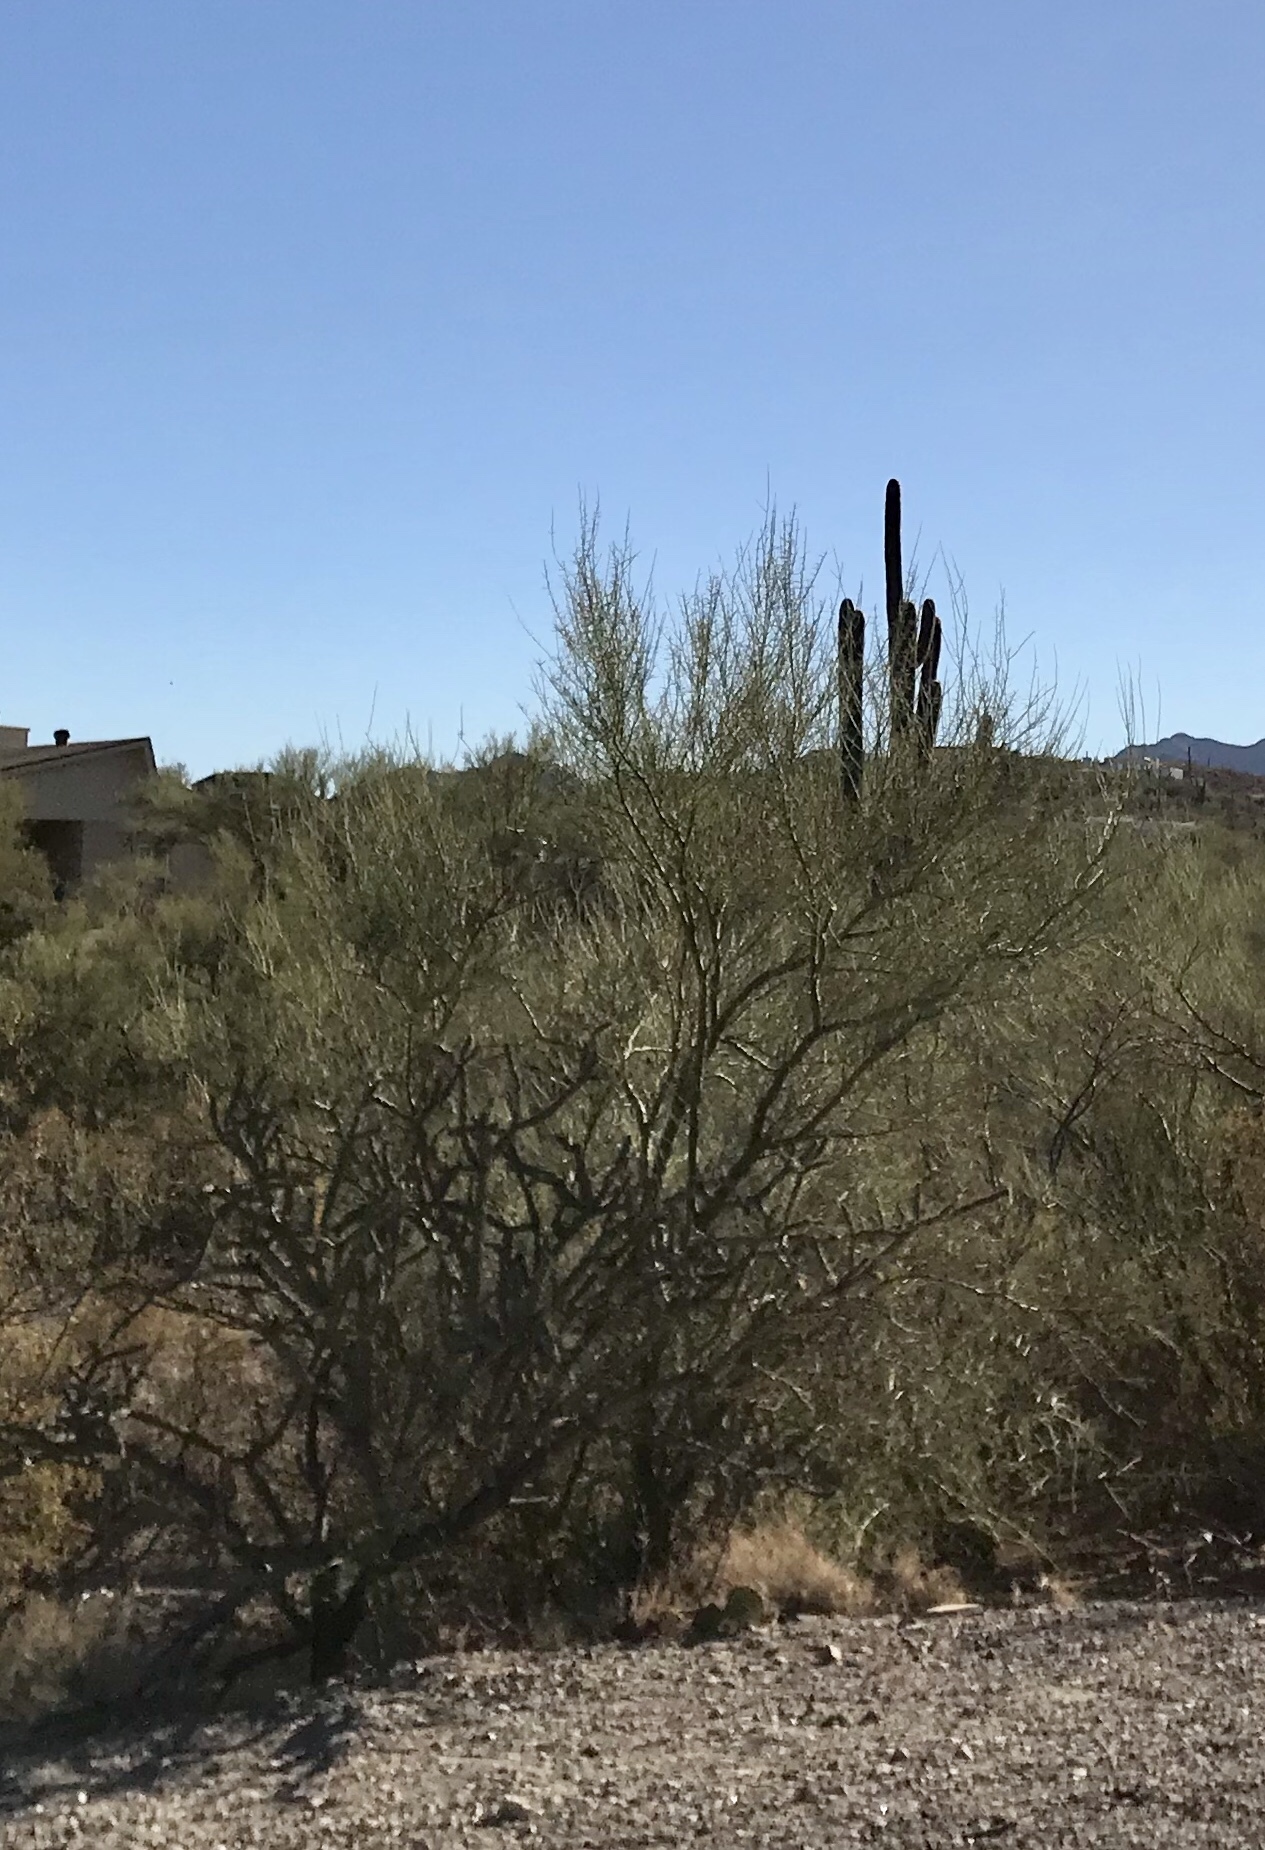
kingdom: Plantae
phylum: Tracheophyta
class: Magnoliopsida
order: Fabales
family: Fabaceae
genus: Parkinsonia
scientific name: Parkinsonia microphylla
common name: Yellow paloverde
